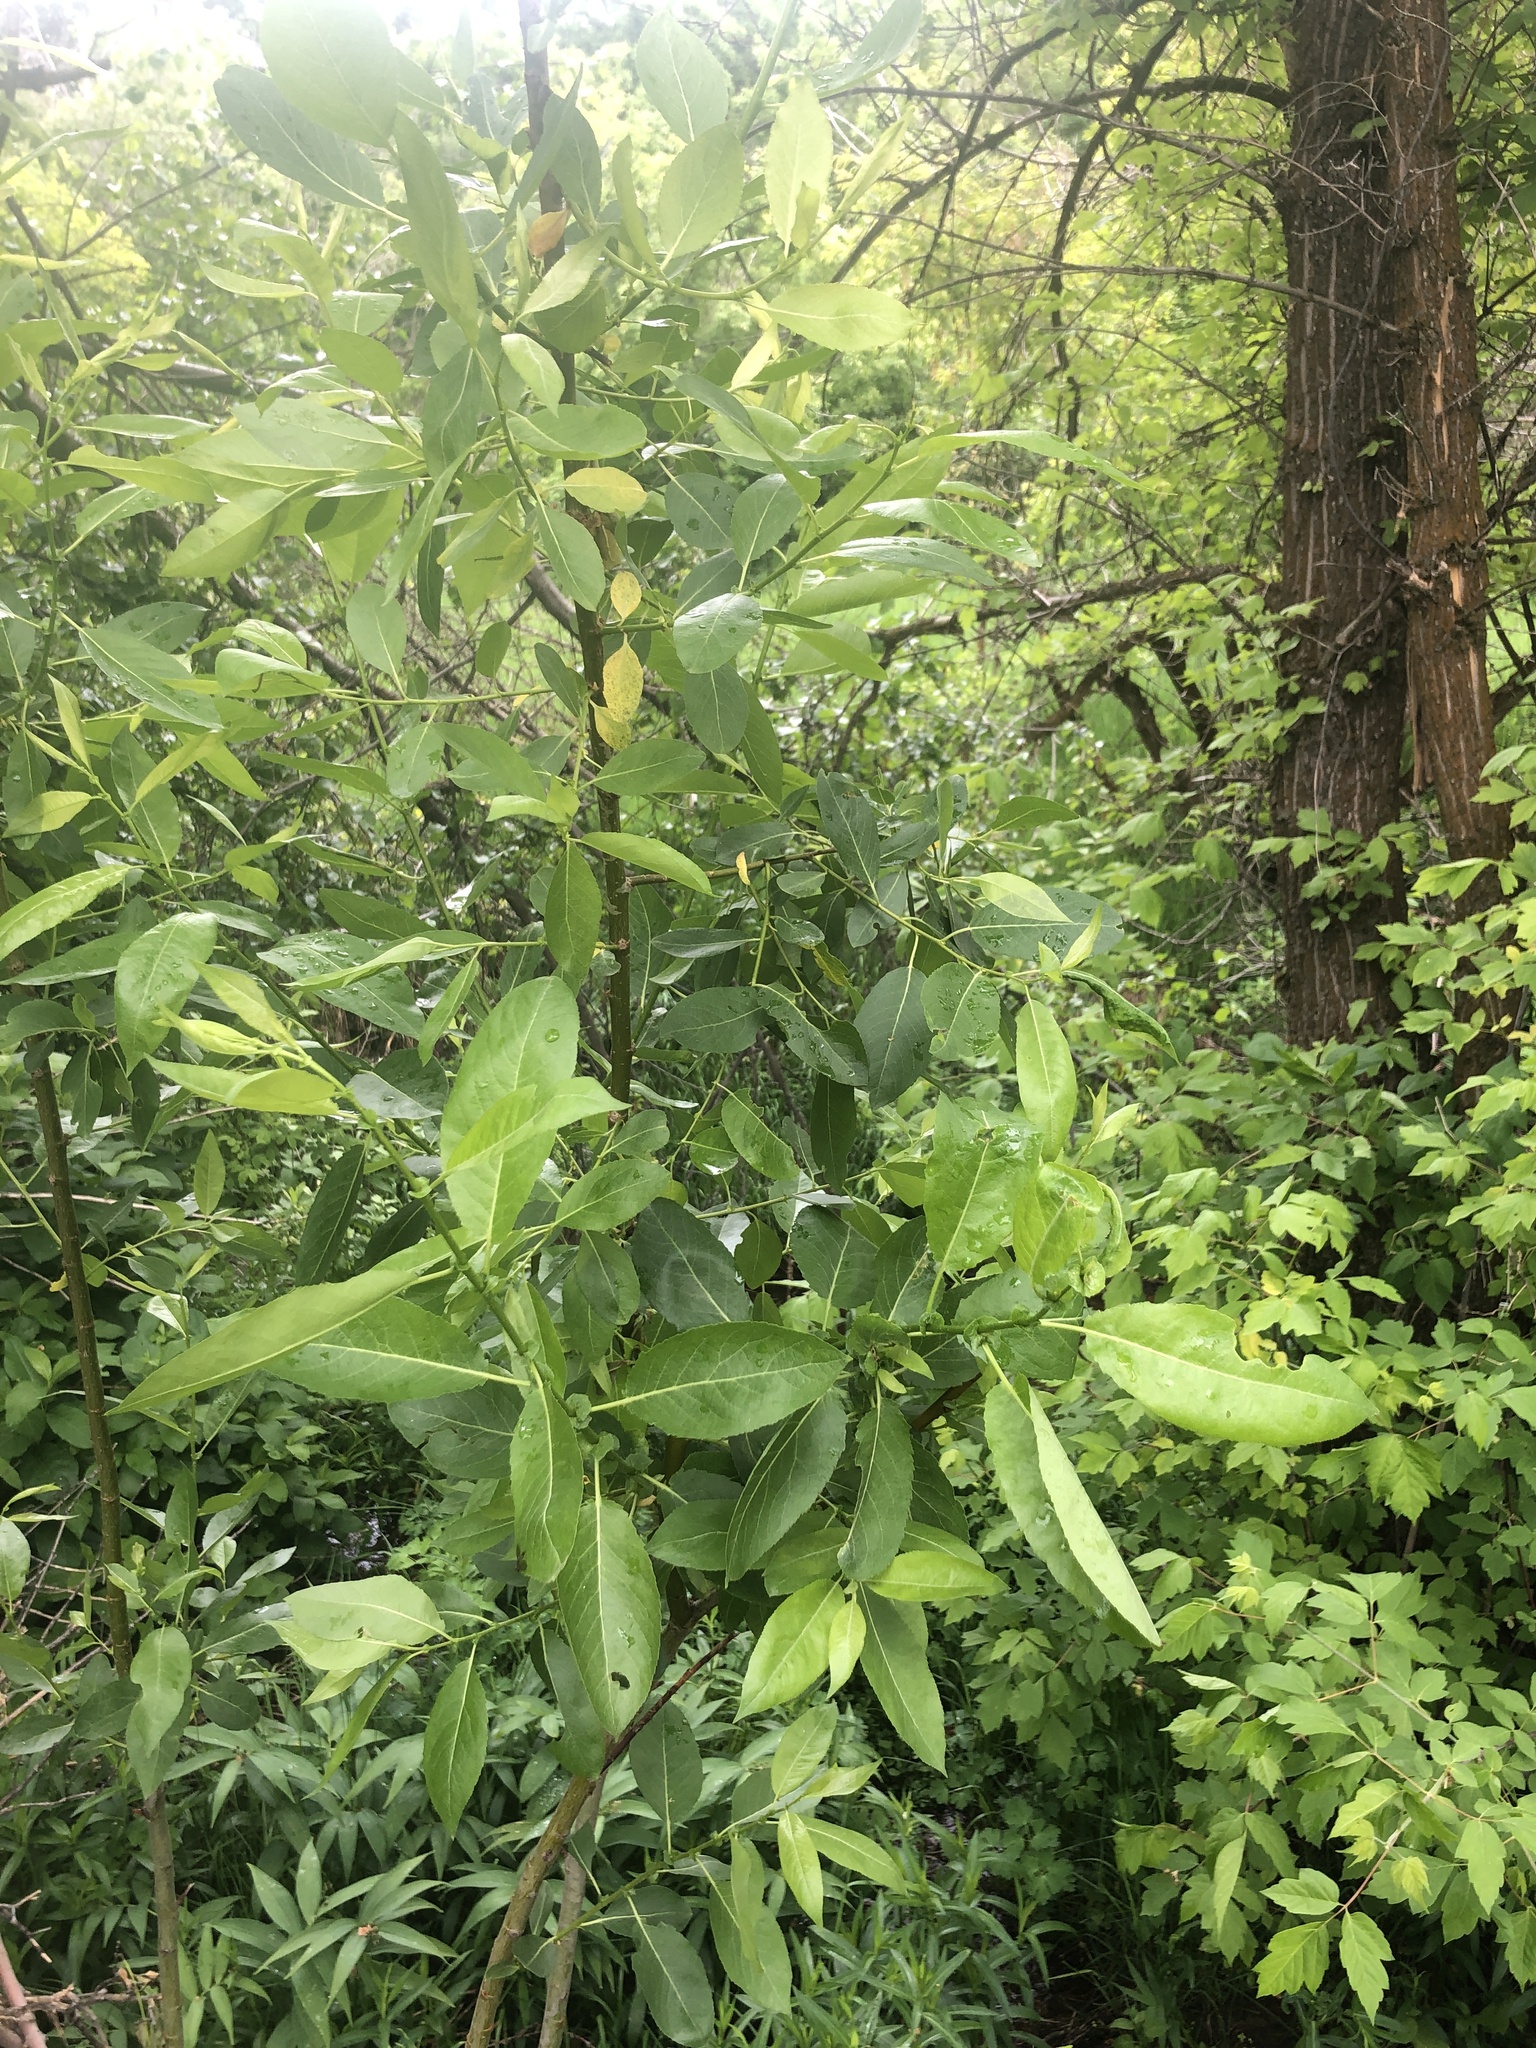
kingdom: Plantae
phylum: Tracheophyta
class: Magnoliopsida
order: Malpighiales
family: Salicaceae
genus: Salix
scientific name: Salix lutea
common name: Yellow willow
